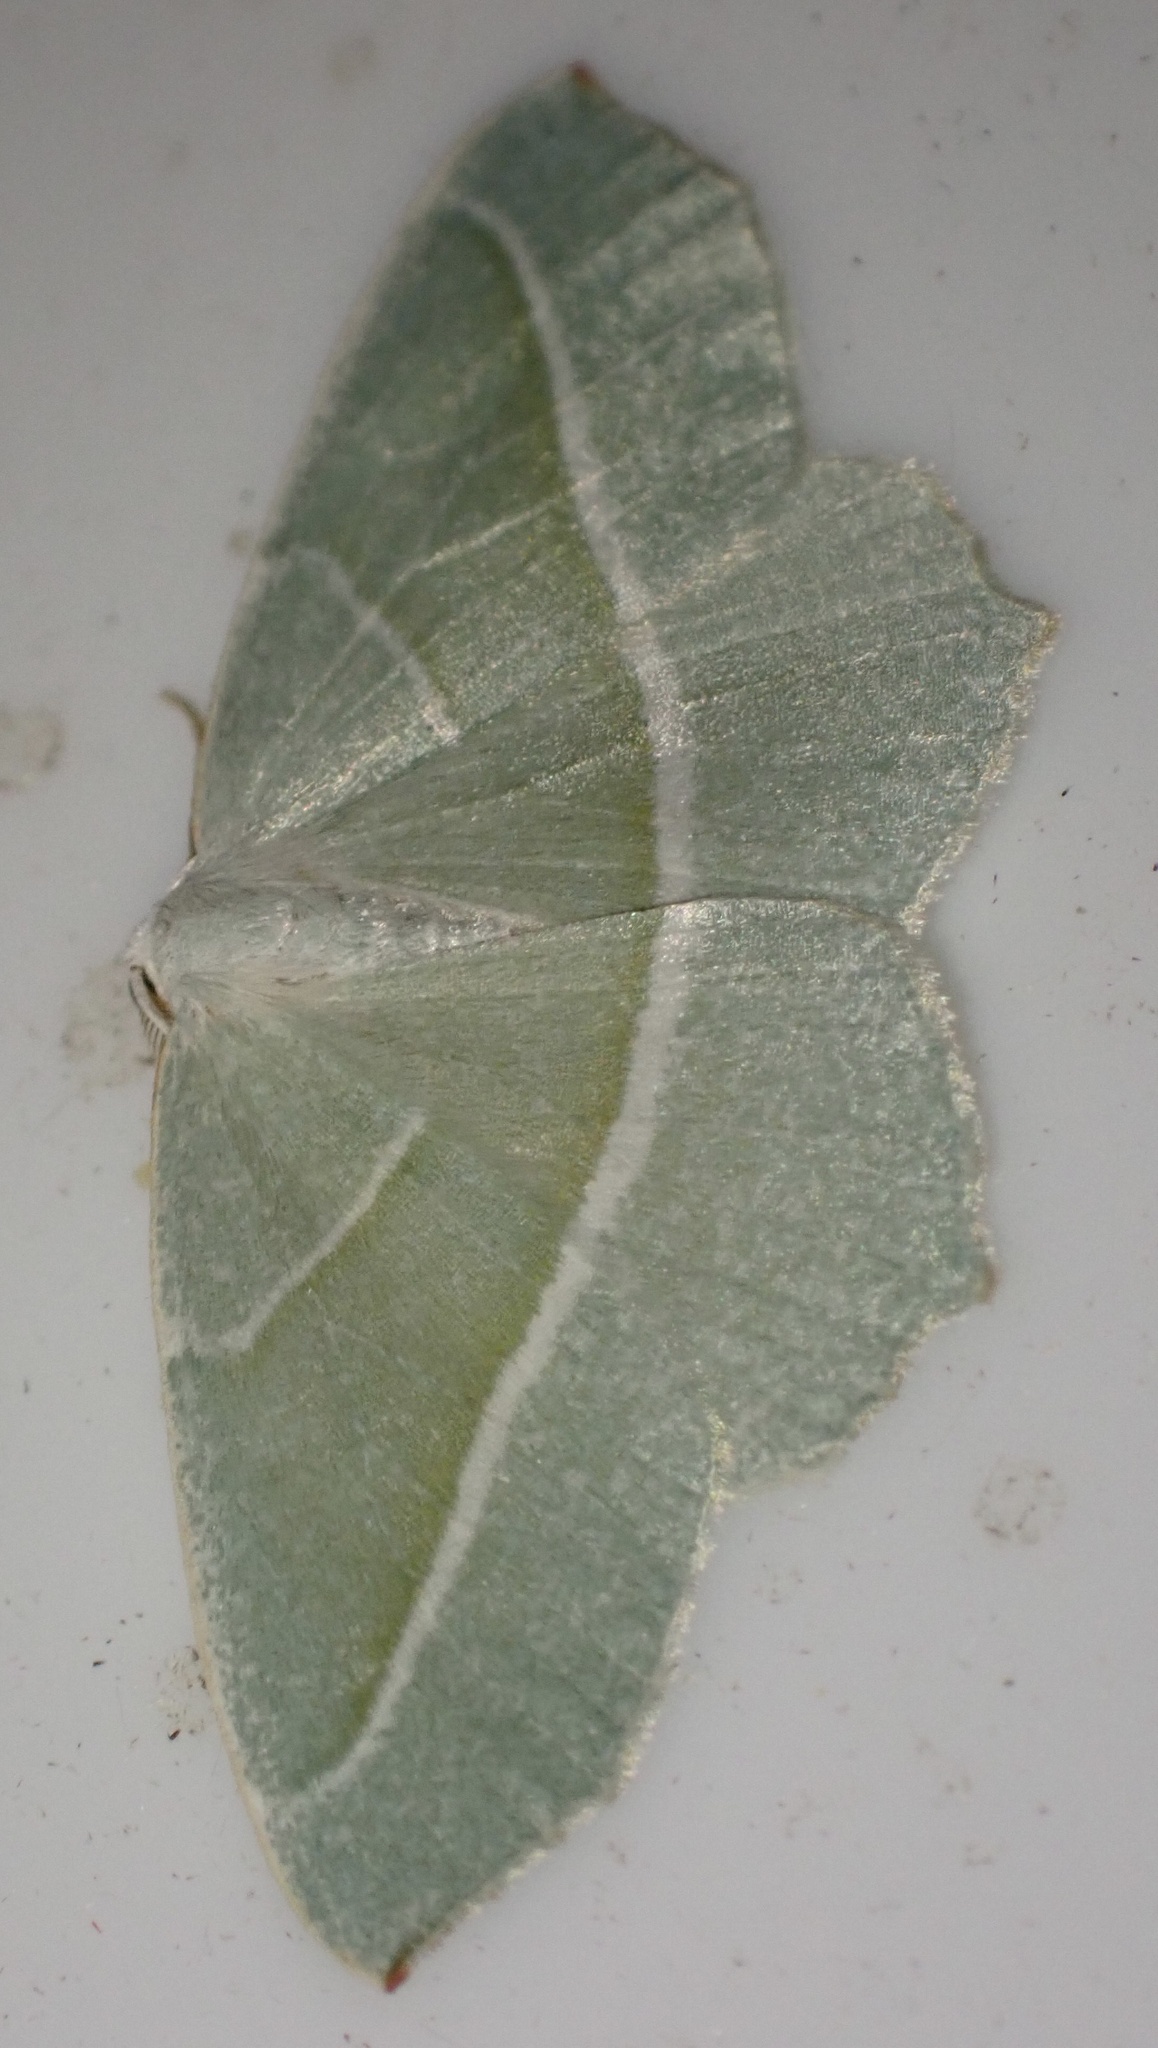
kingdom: Animalia
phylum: Arthropoda
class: Insecta
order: Lepidoptera
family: Geometridae
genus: Campaea
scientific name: Campaea margaritaria
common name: Light emerald
